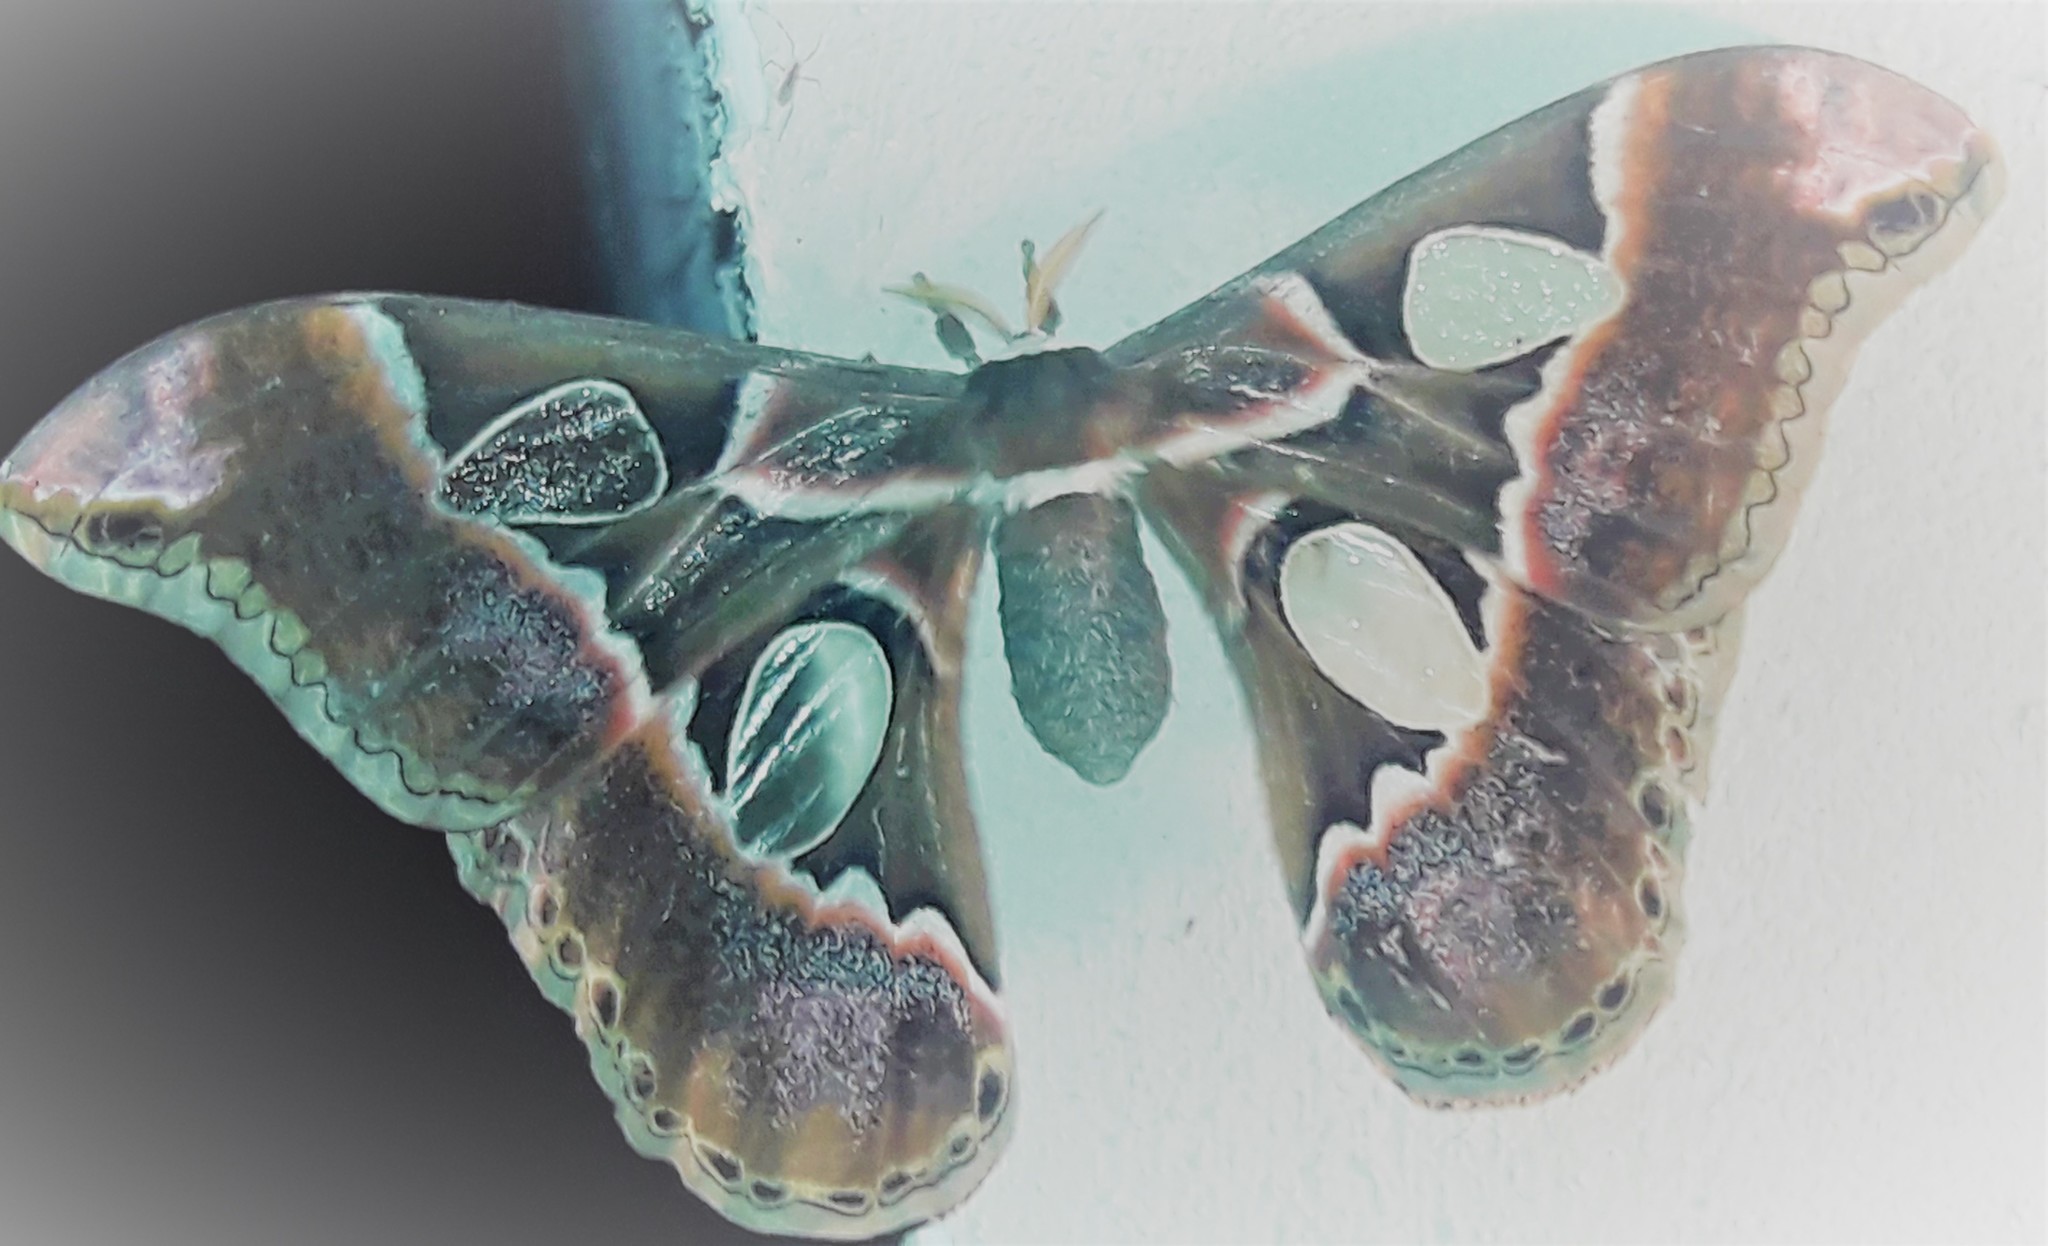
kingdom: Animalia
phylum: Arthropoda
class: Insecta
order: Lepidoptera
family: Saturniidae
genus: Rothschildia
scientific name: Rothschildia lebeau
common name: Lebeau's rothschildia
